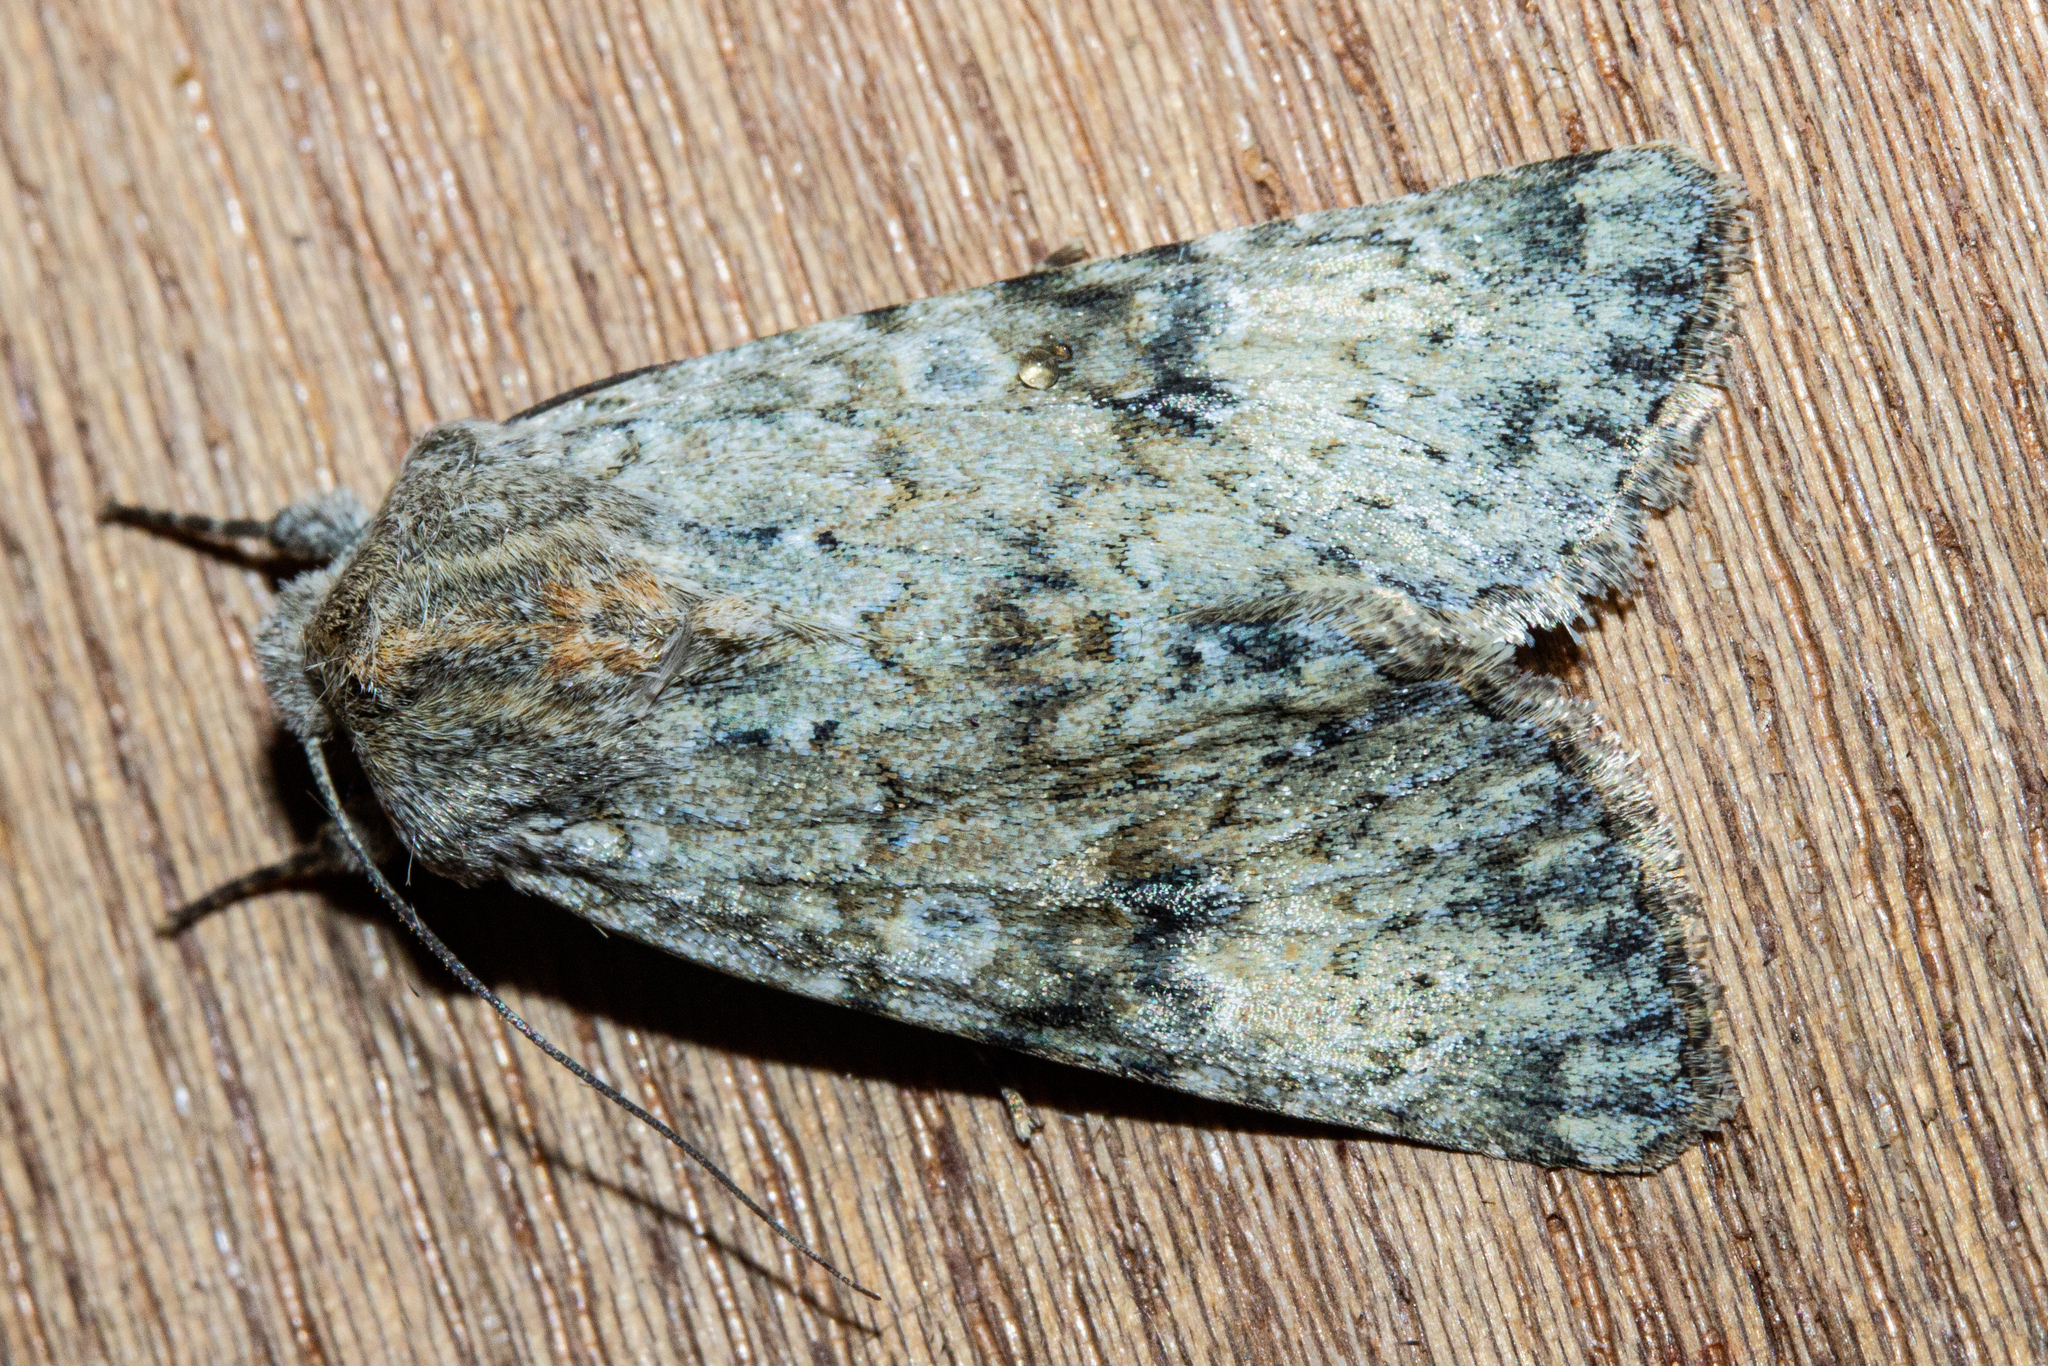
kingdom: Animalia
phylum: Arthropoda
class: Insecta
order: Lepidoptera
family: Noctuidae
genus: Ichneutica
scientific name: Ichneutica cuneata
